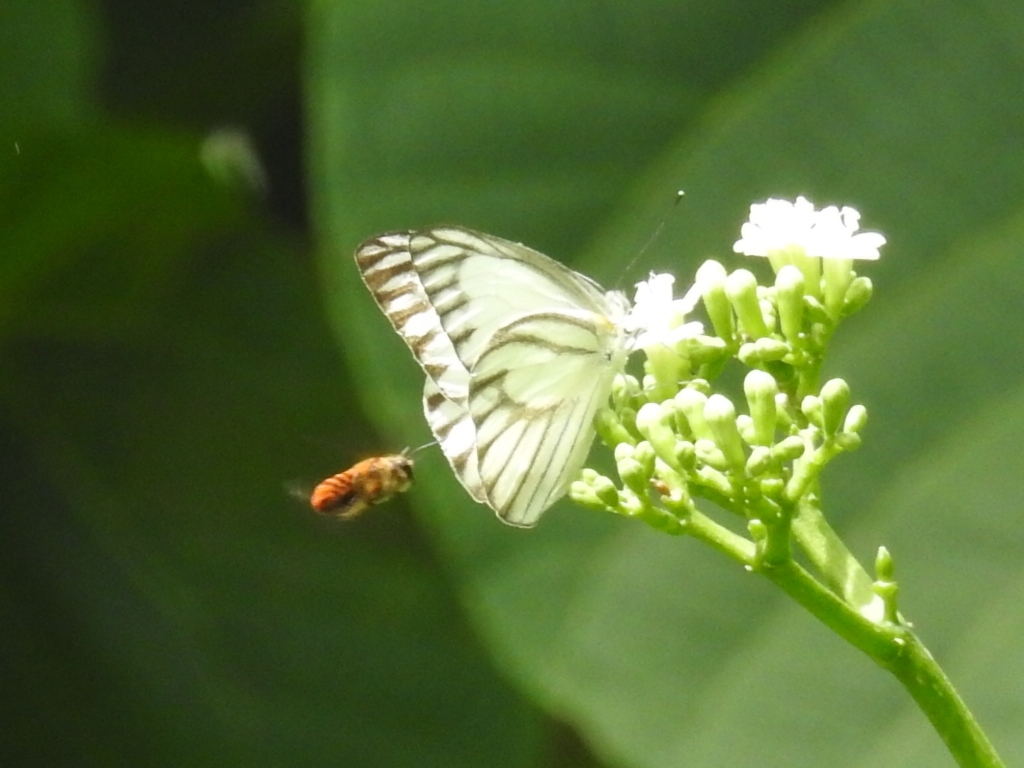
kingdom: Animalia
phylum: Arthropoda
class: Insecta
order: Lepidoptera
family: Pieridae
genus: Appias
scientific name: Appias libythea
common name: Striped albatross
